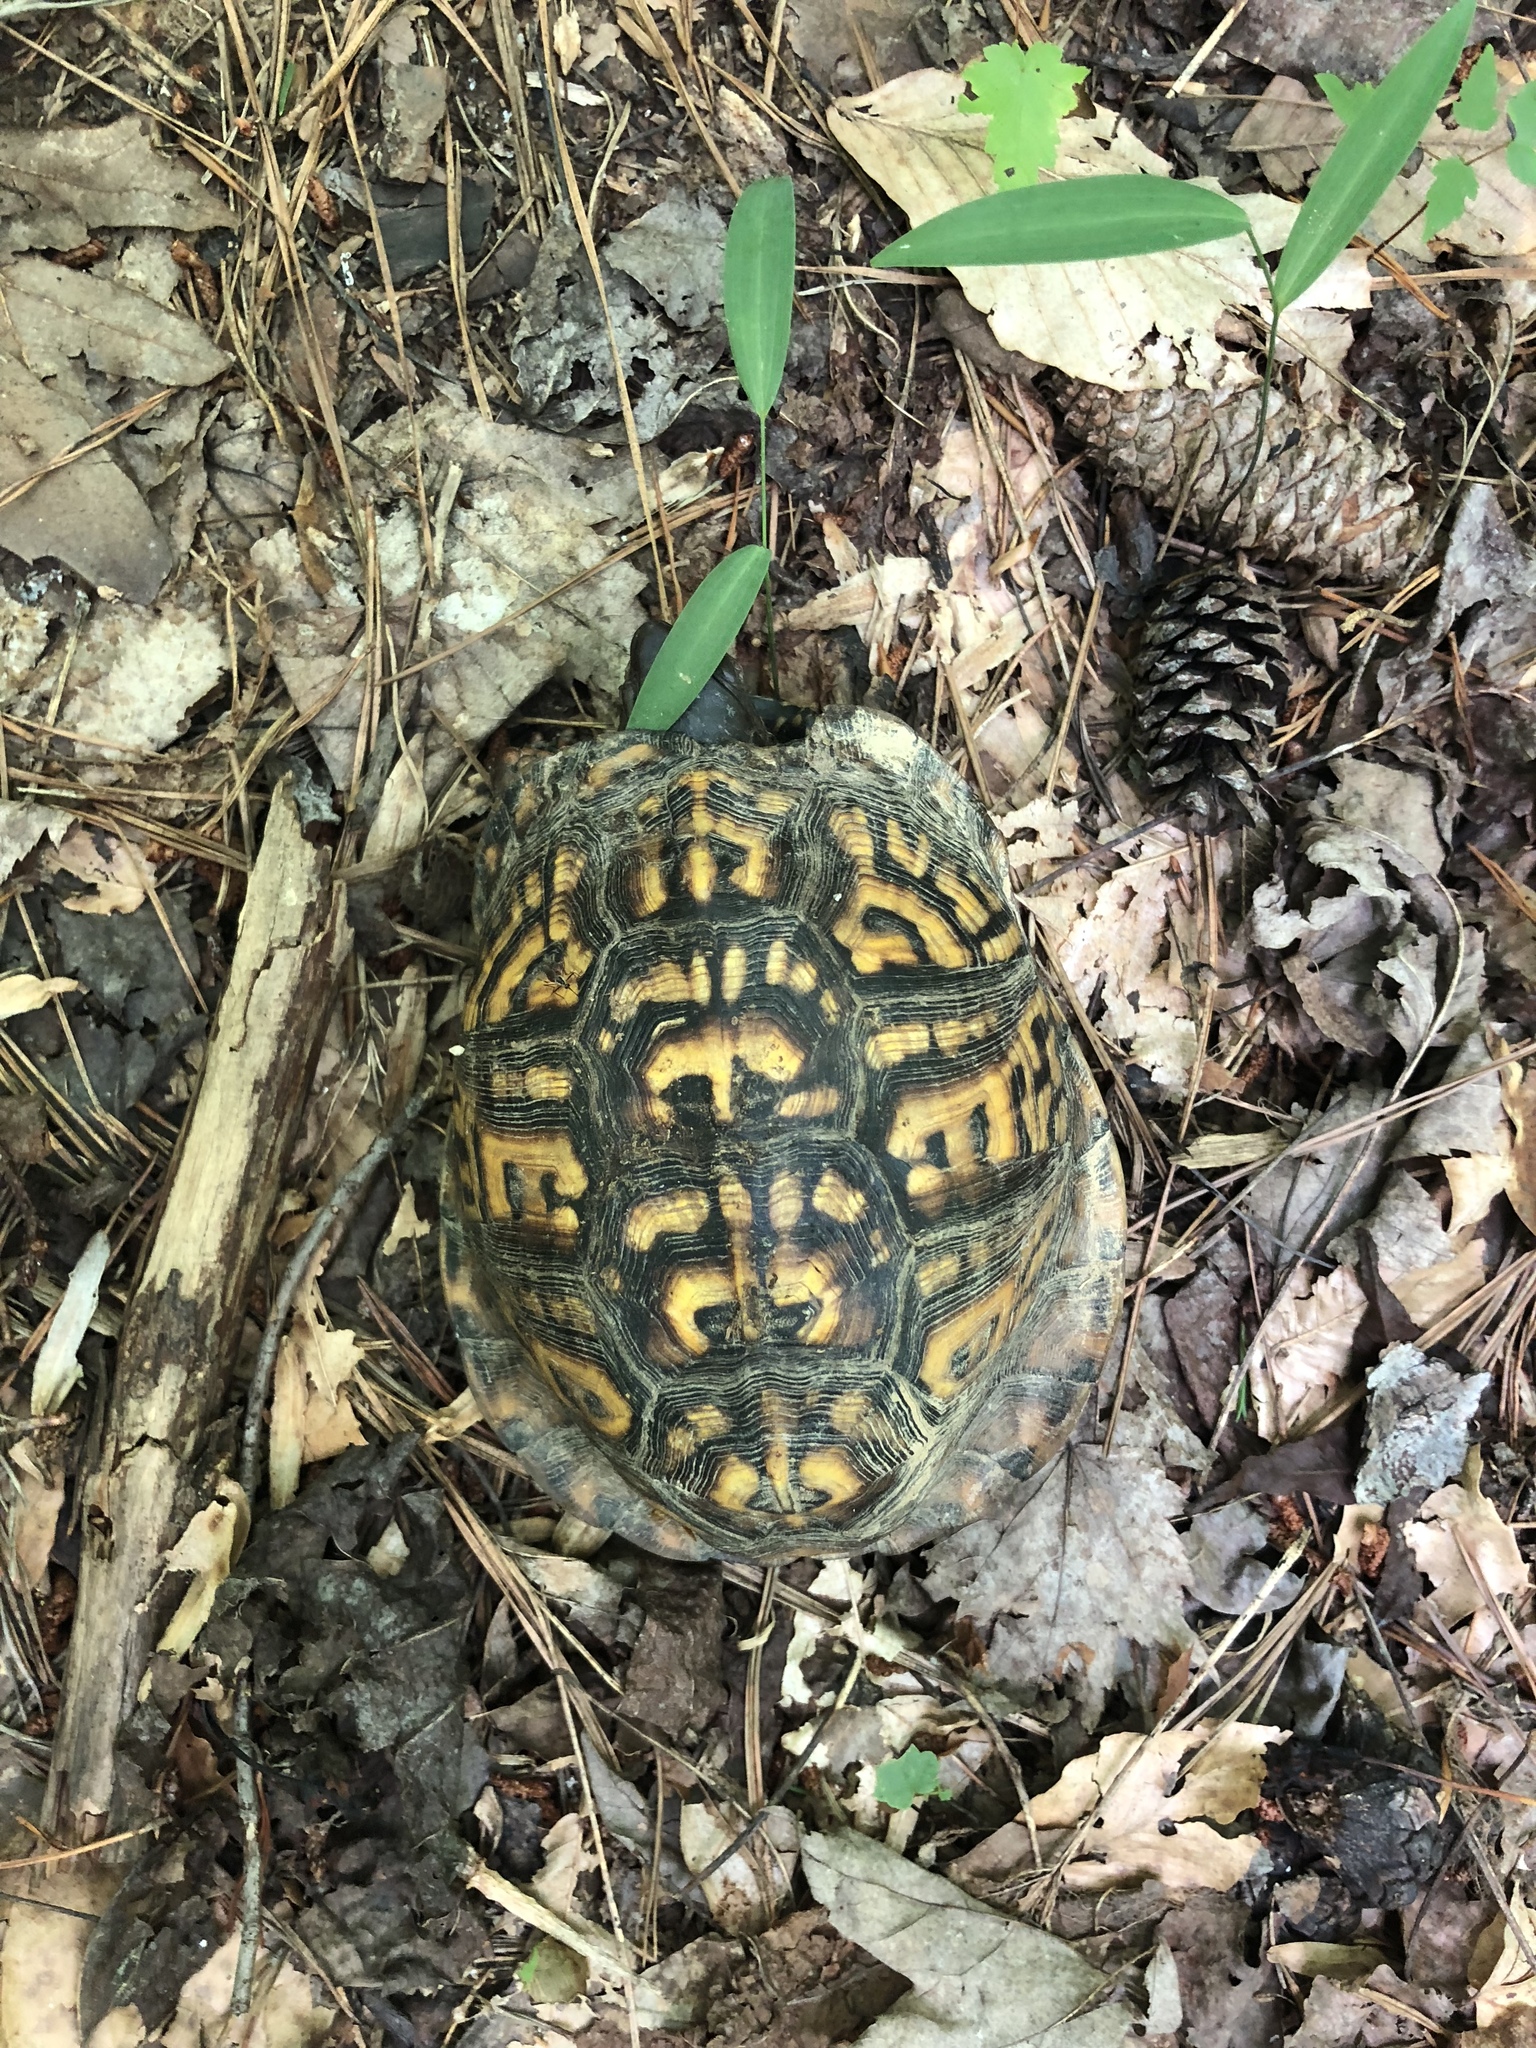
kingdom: Animalia
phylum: Chordata
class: Testudines
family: Emydidae
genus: Terrapene
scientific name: Terrapene carolina
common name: Common box turtle
